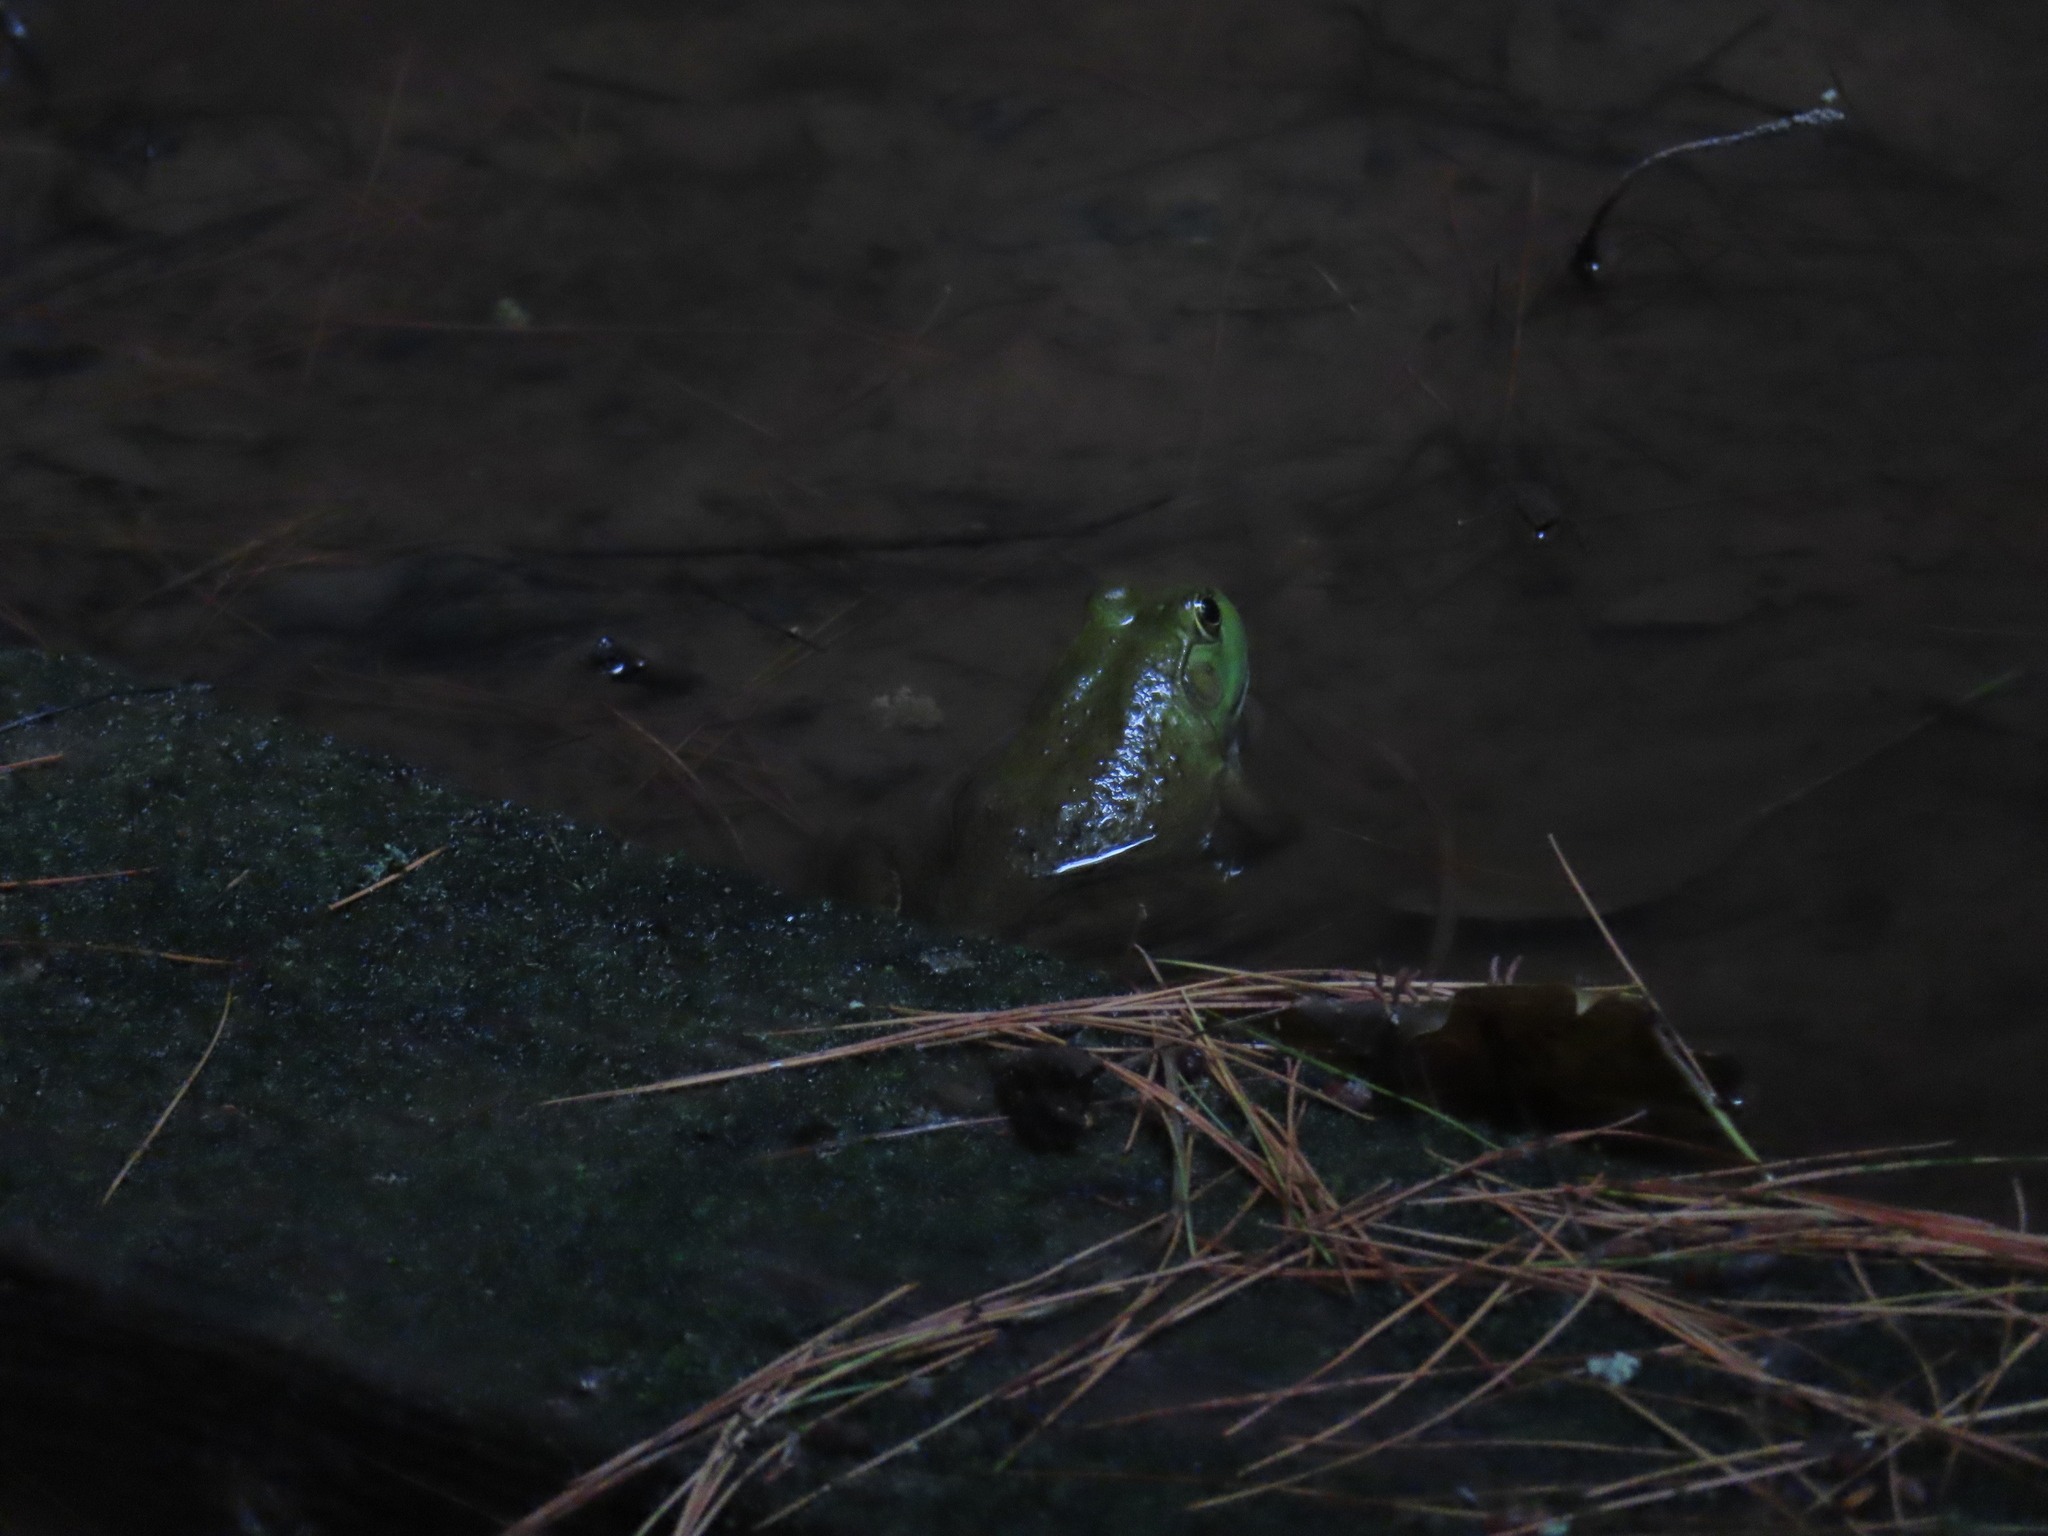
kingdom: Animalia
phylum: Chordata
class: Amphibia
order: Anura
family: Ranidae
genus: Lithobates
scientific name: Lithobates catesbeianus
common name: American bullfrog
